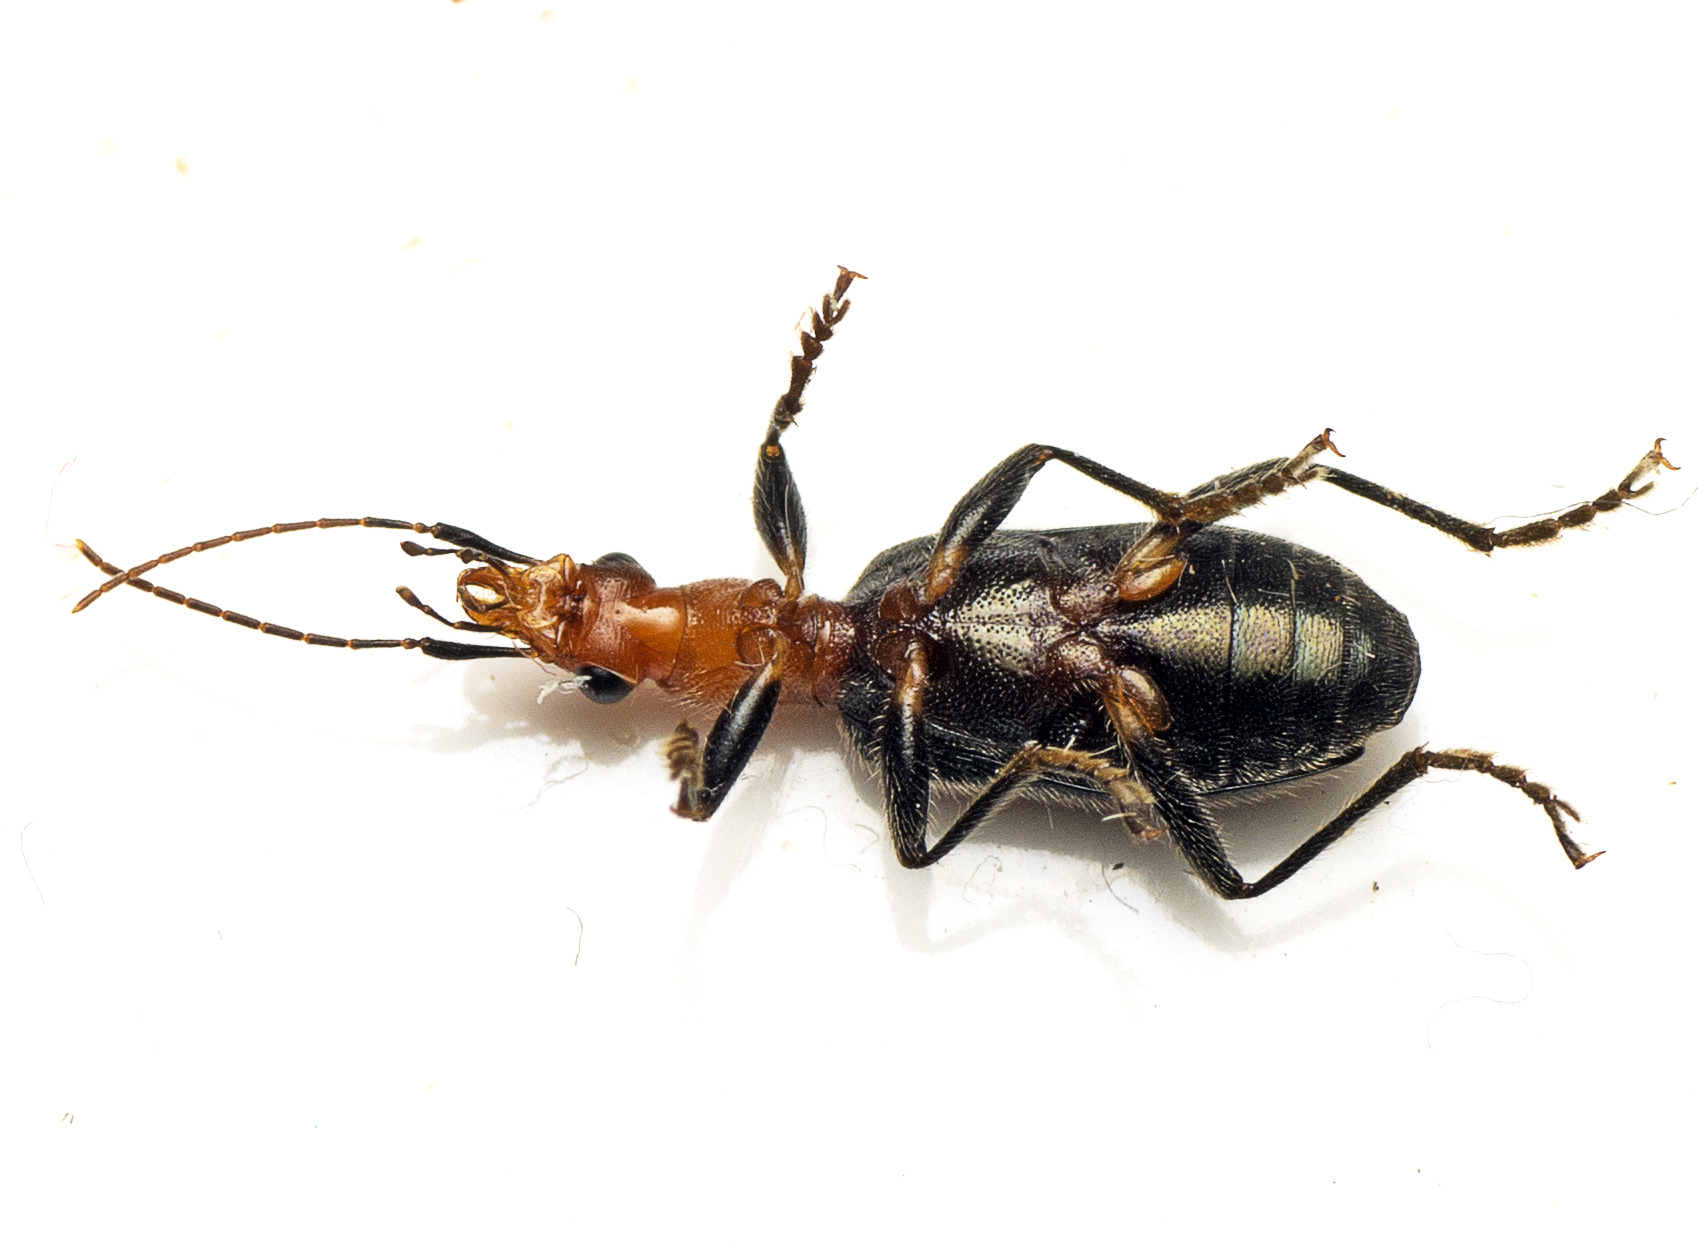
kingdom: Animalia
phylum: Arthropoda
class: Insecta
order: Coleoptera
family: Carabidae
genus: Drypta
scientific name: Drypta australis
